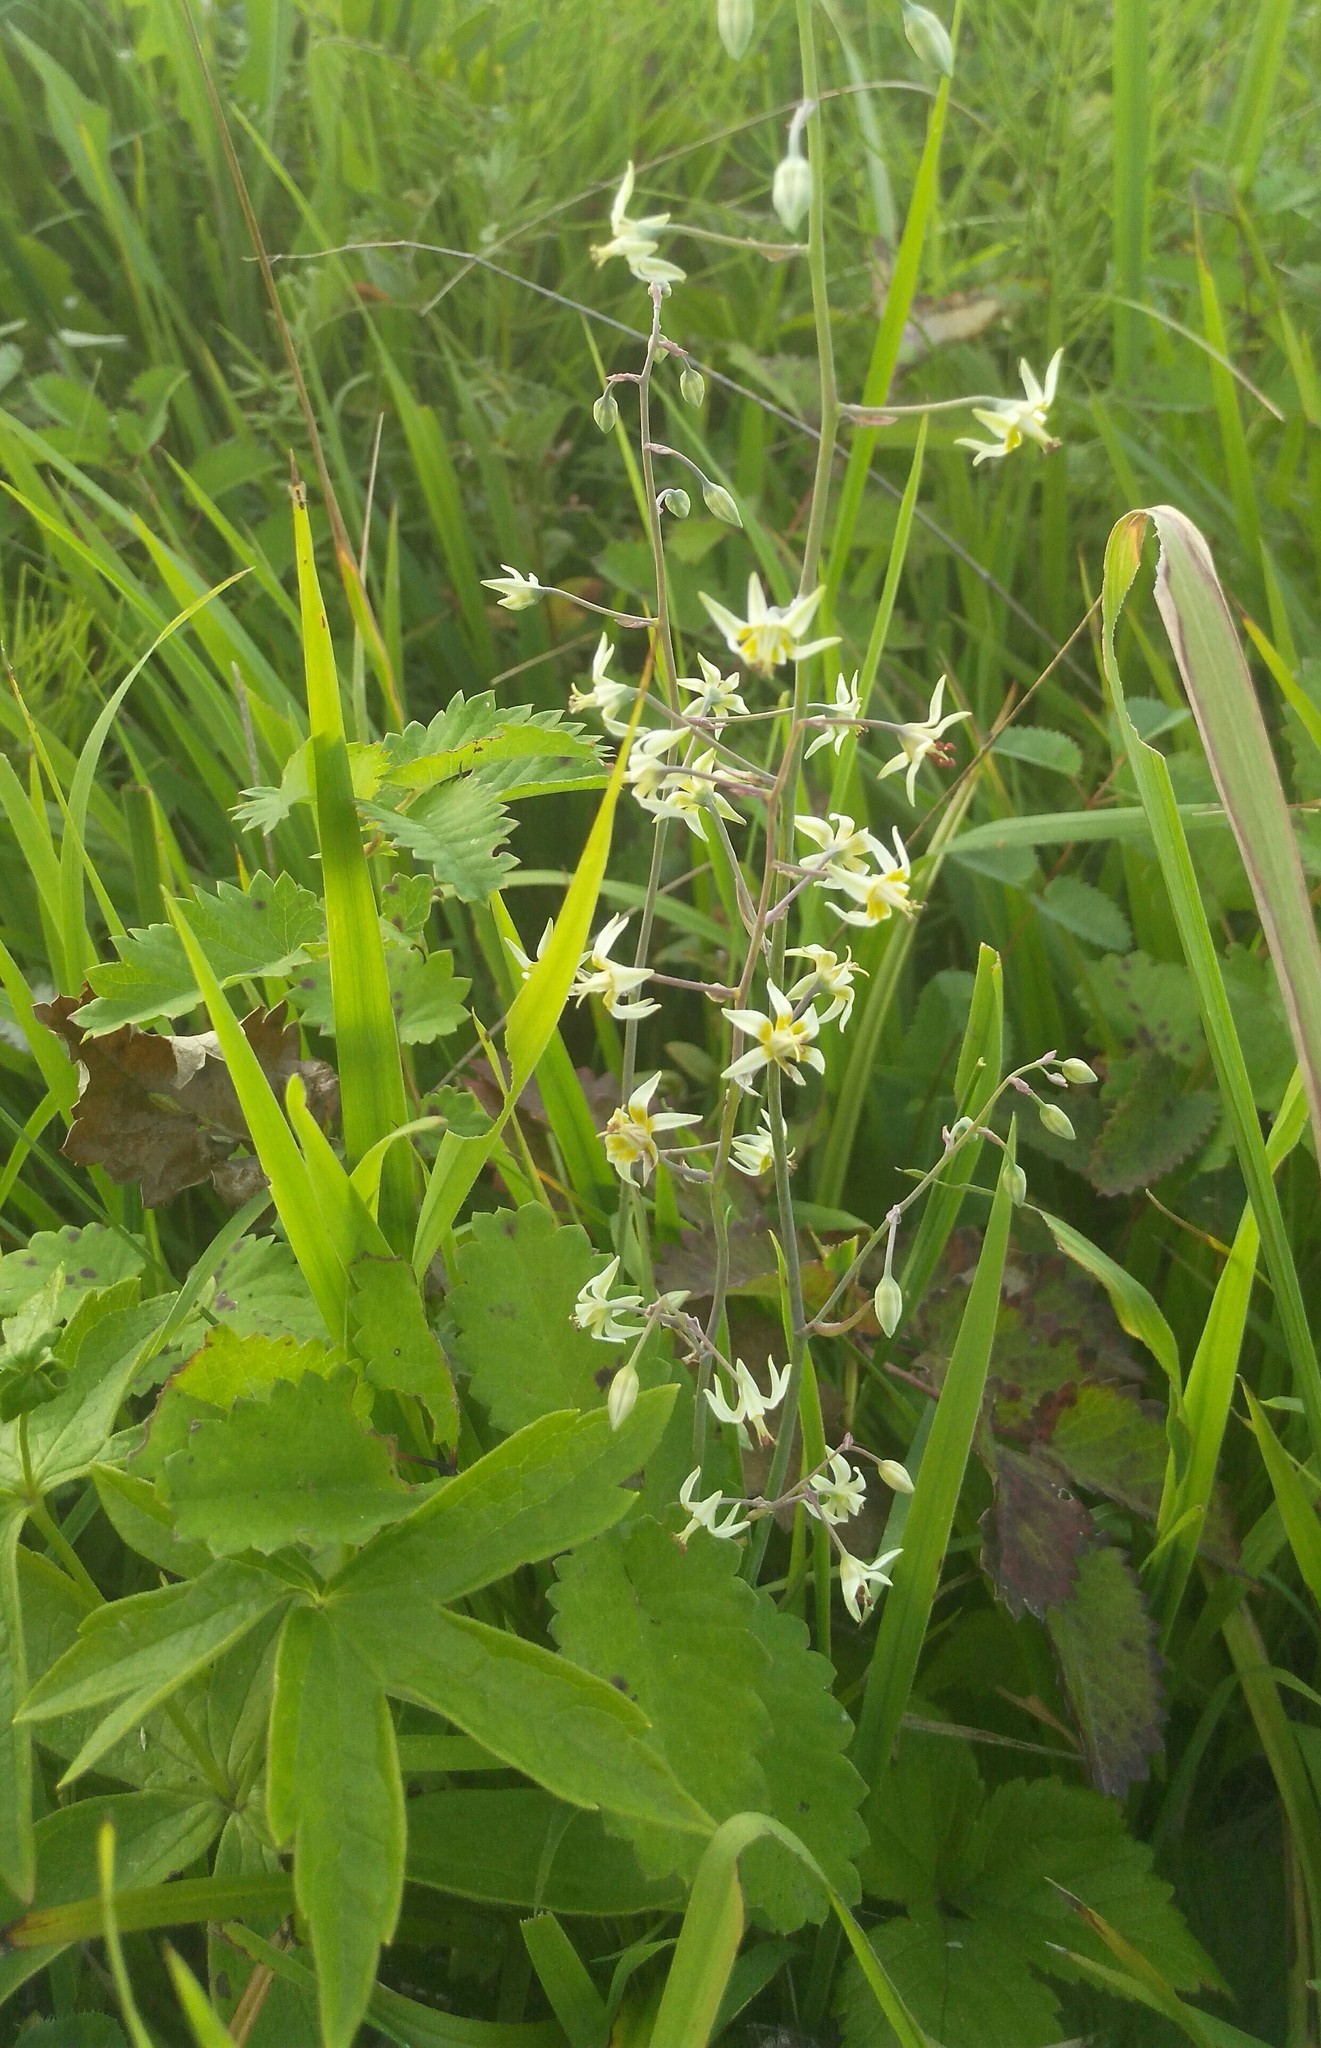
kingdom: Plantae
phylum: Tracheophyta
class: Liliopsida
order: Liliales
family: Melanthiaceae
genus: Anticlea
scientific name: Anticlea sibirica
